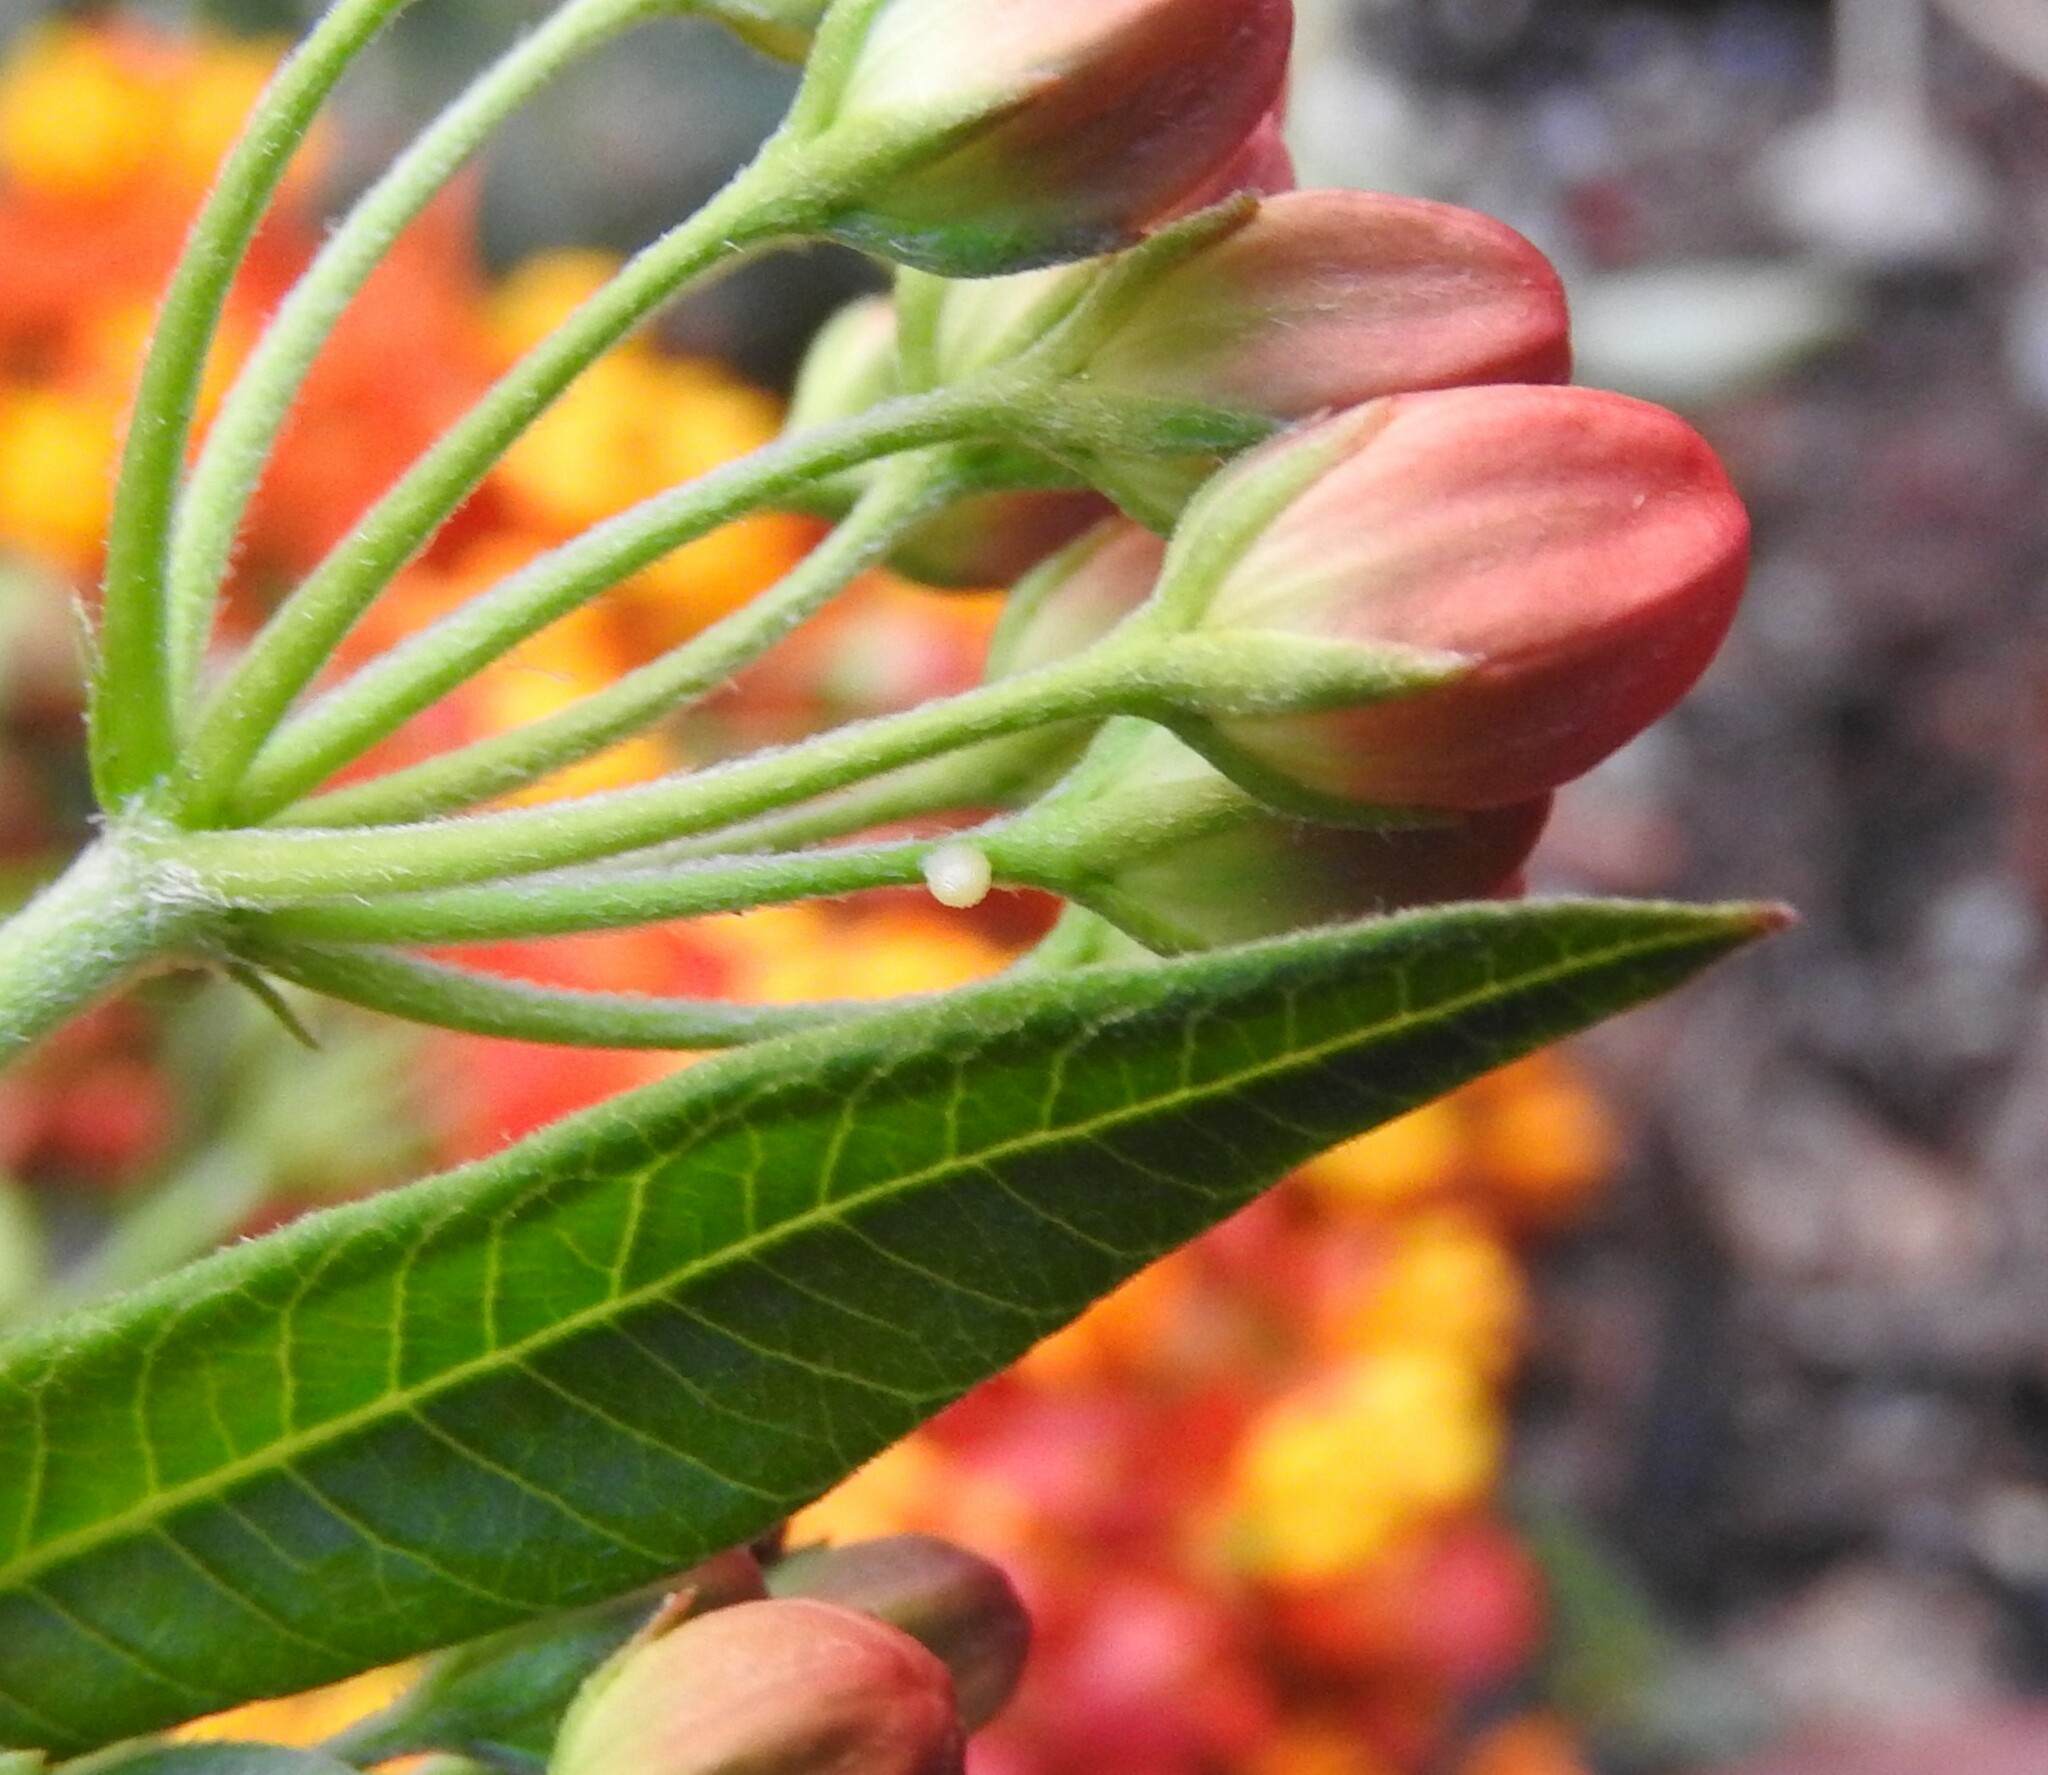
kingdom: Animalia
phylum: Arthropoda
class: Insecta
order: Lepidoptera
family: Nymphalidae
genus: Danaus
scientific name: Danaus plexippus
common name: Monarch
